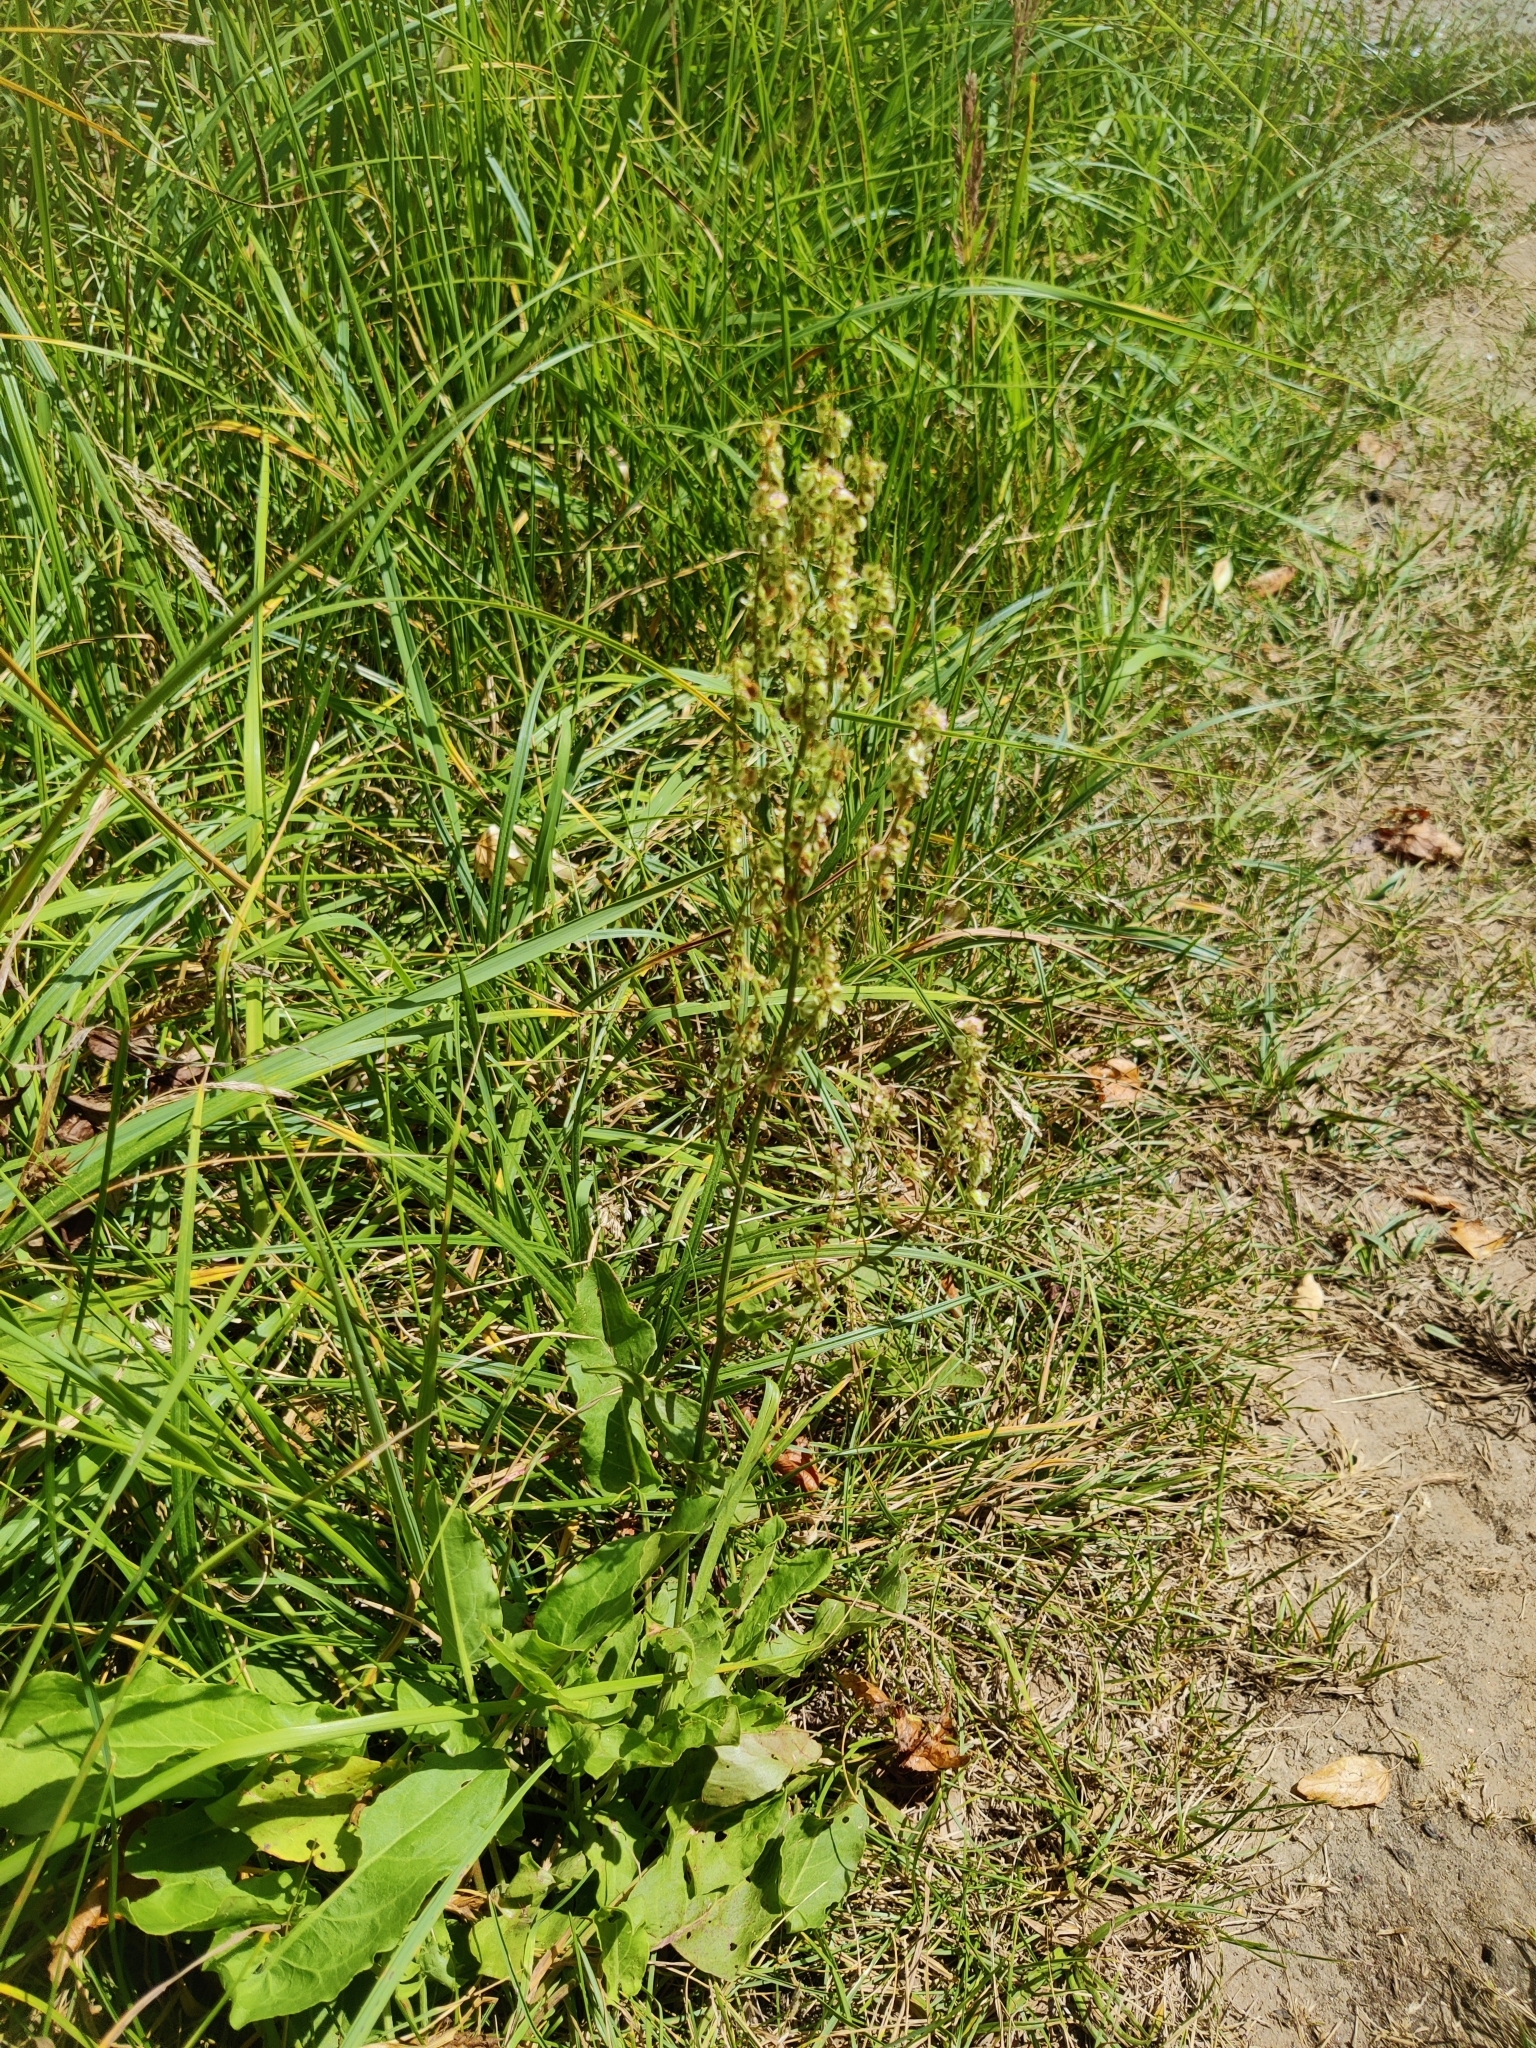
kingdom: Plantae
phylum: Tracheophyta
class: Magnoliopsida
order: Caryophyllales
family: Polygonaceae
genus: Rumex
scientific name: Rumex thyrsiflorus
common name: Garden sorrel
